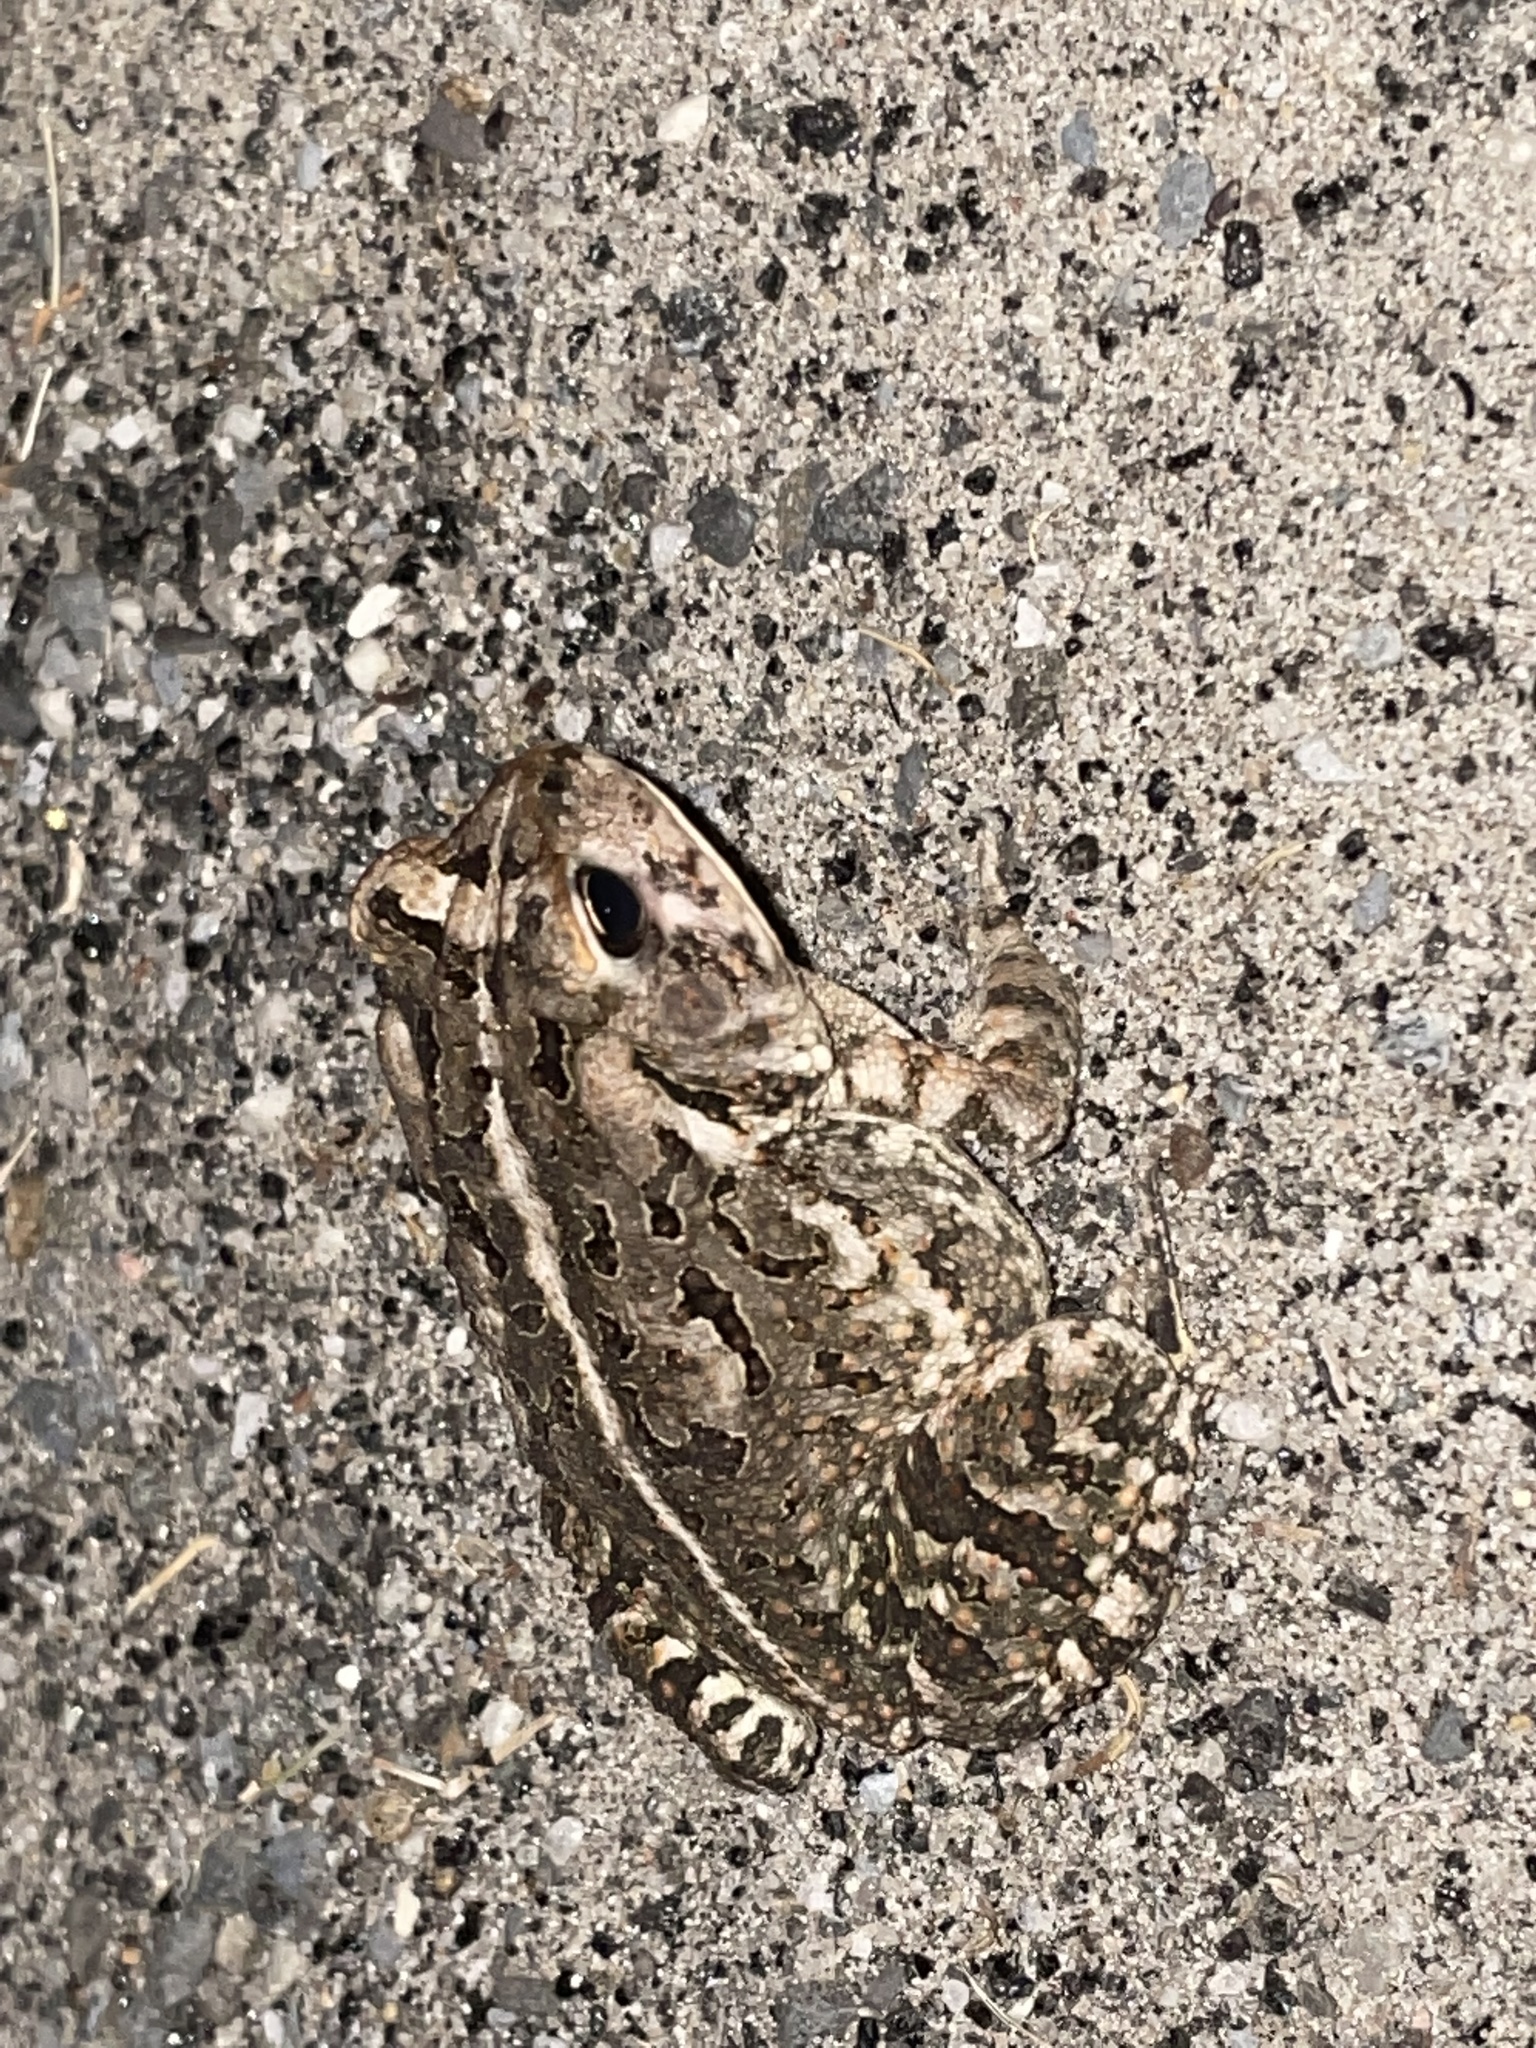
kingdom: Animalia
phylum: Chordata
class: Amphibia
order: Anura
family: Bufonidae
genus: Anaxyrus
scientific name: Anaxyrus fowleri
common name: Fowler's toad
